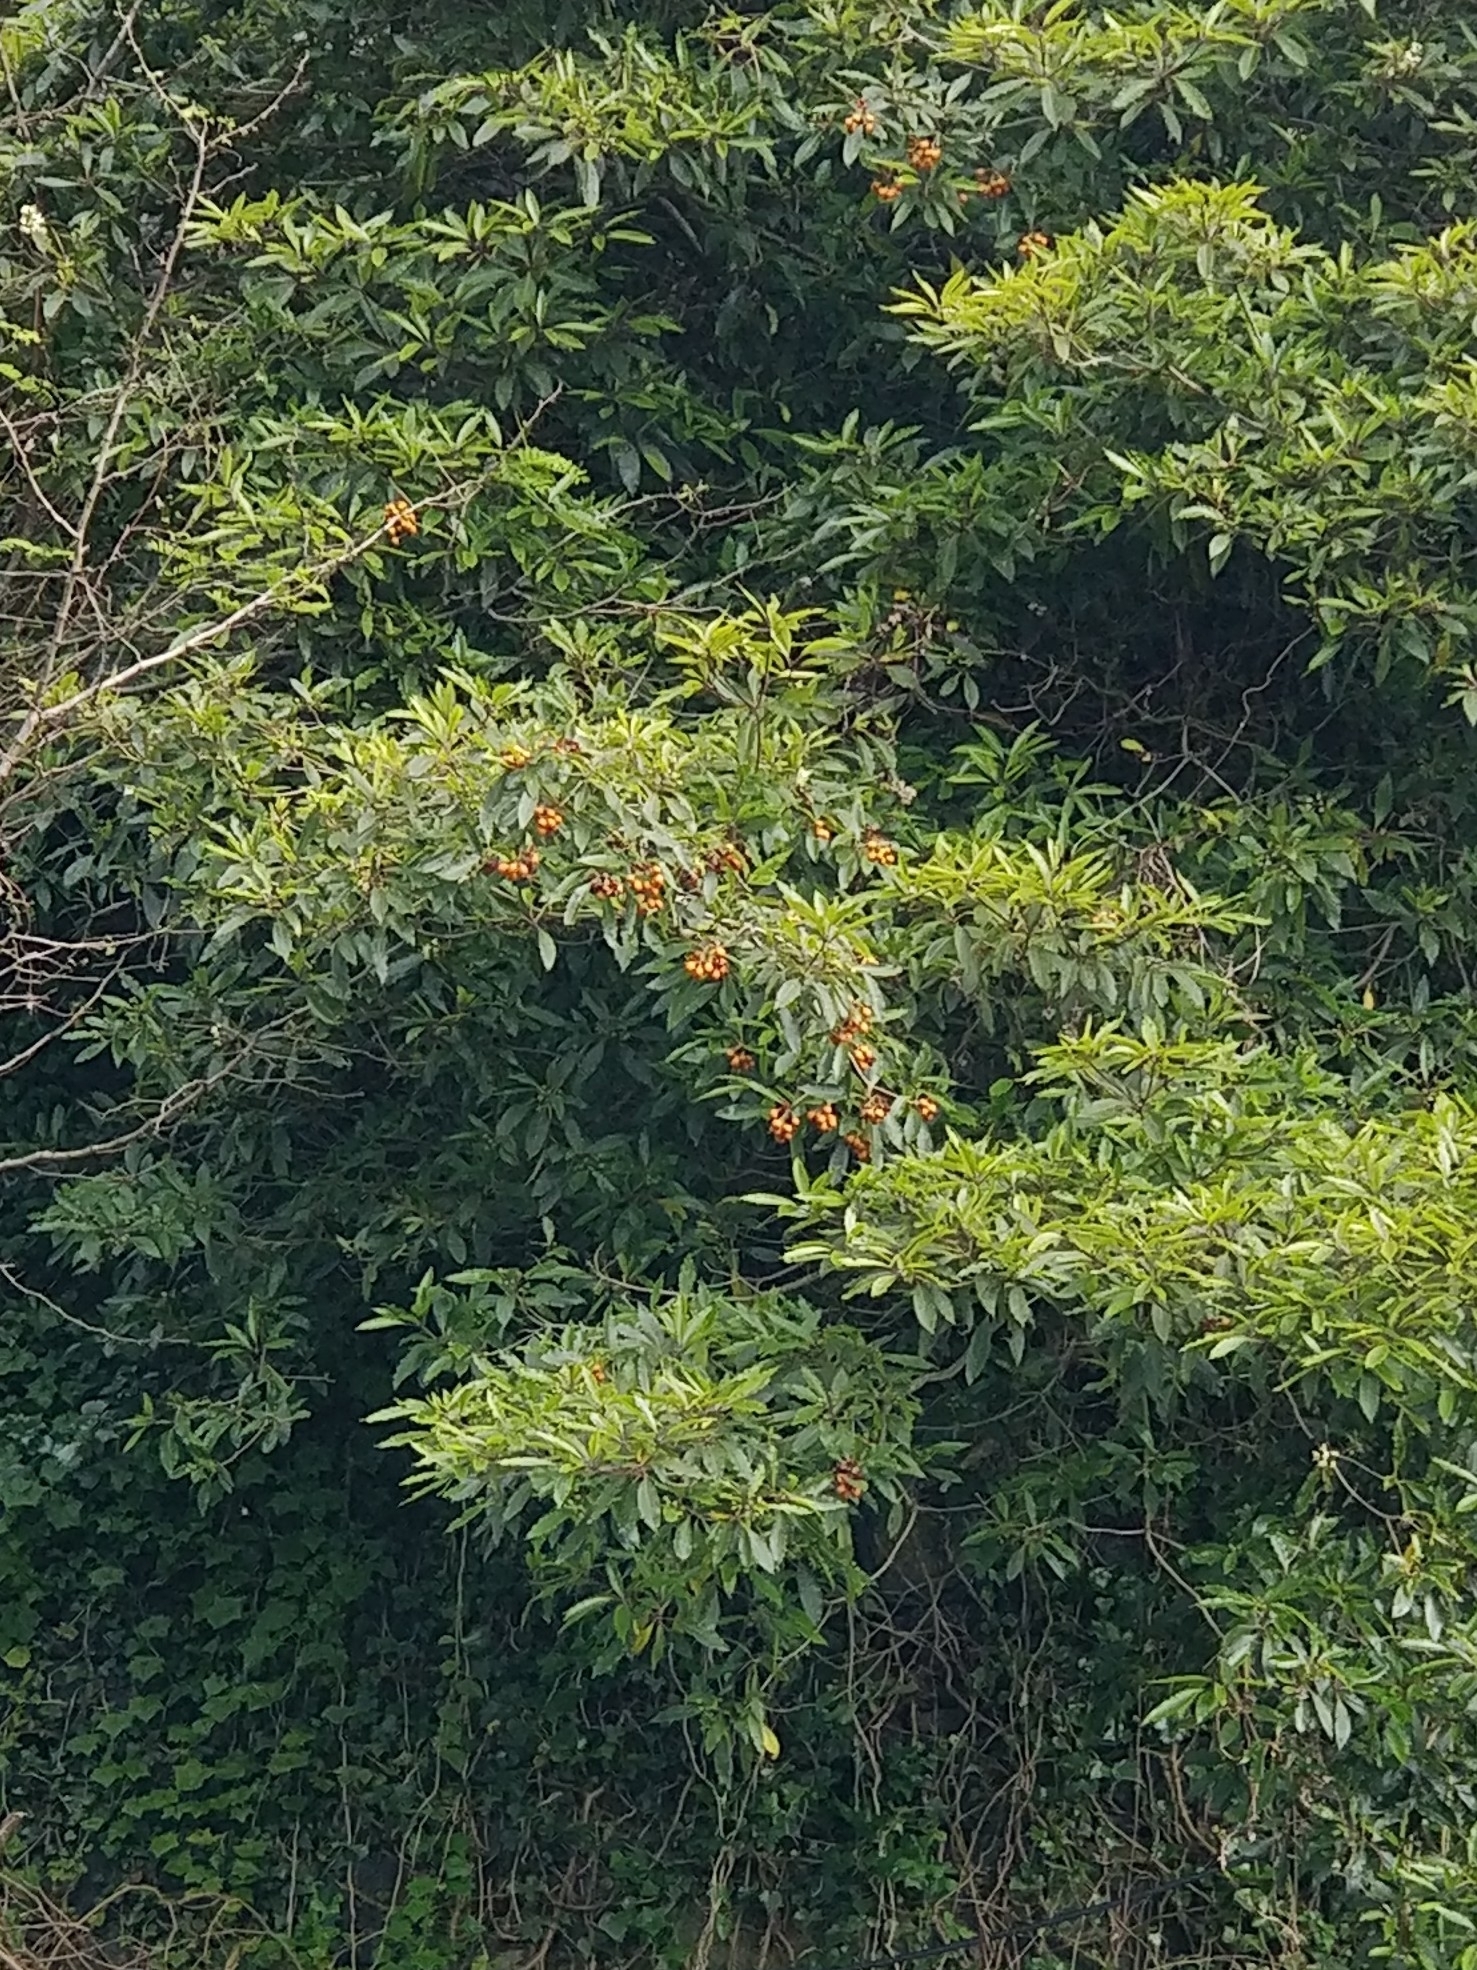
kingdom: Plantae
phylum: Tracheophyta
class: Magnoliopsida
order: Apiales
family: Pittosporaceae
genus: Pittosporum
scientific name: Pittosporum undulatum
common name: Australian cheesewood
